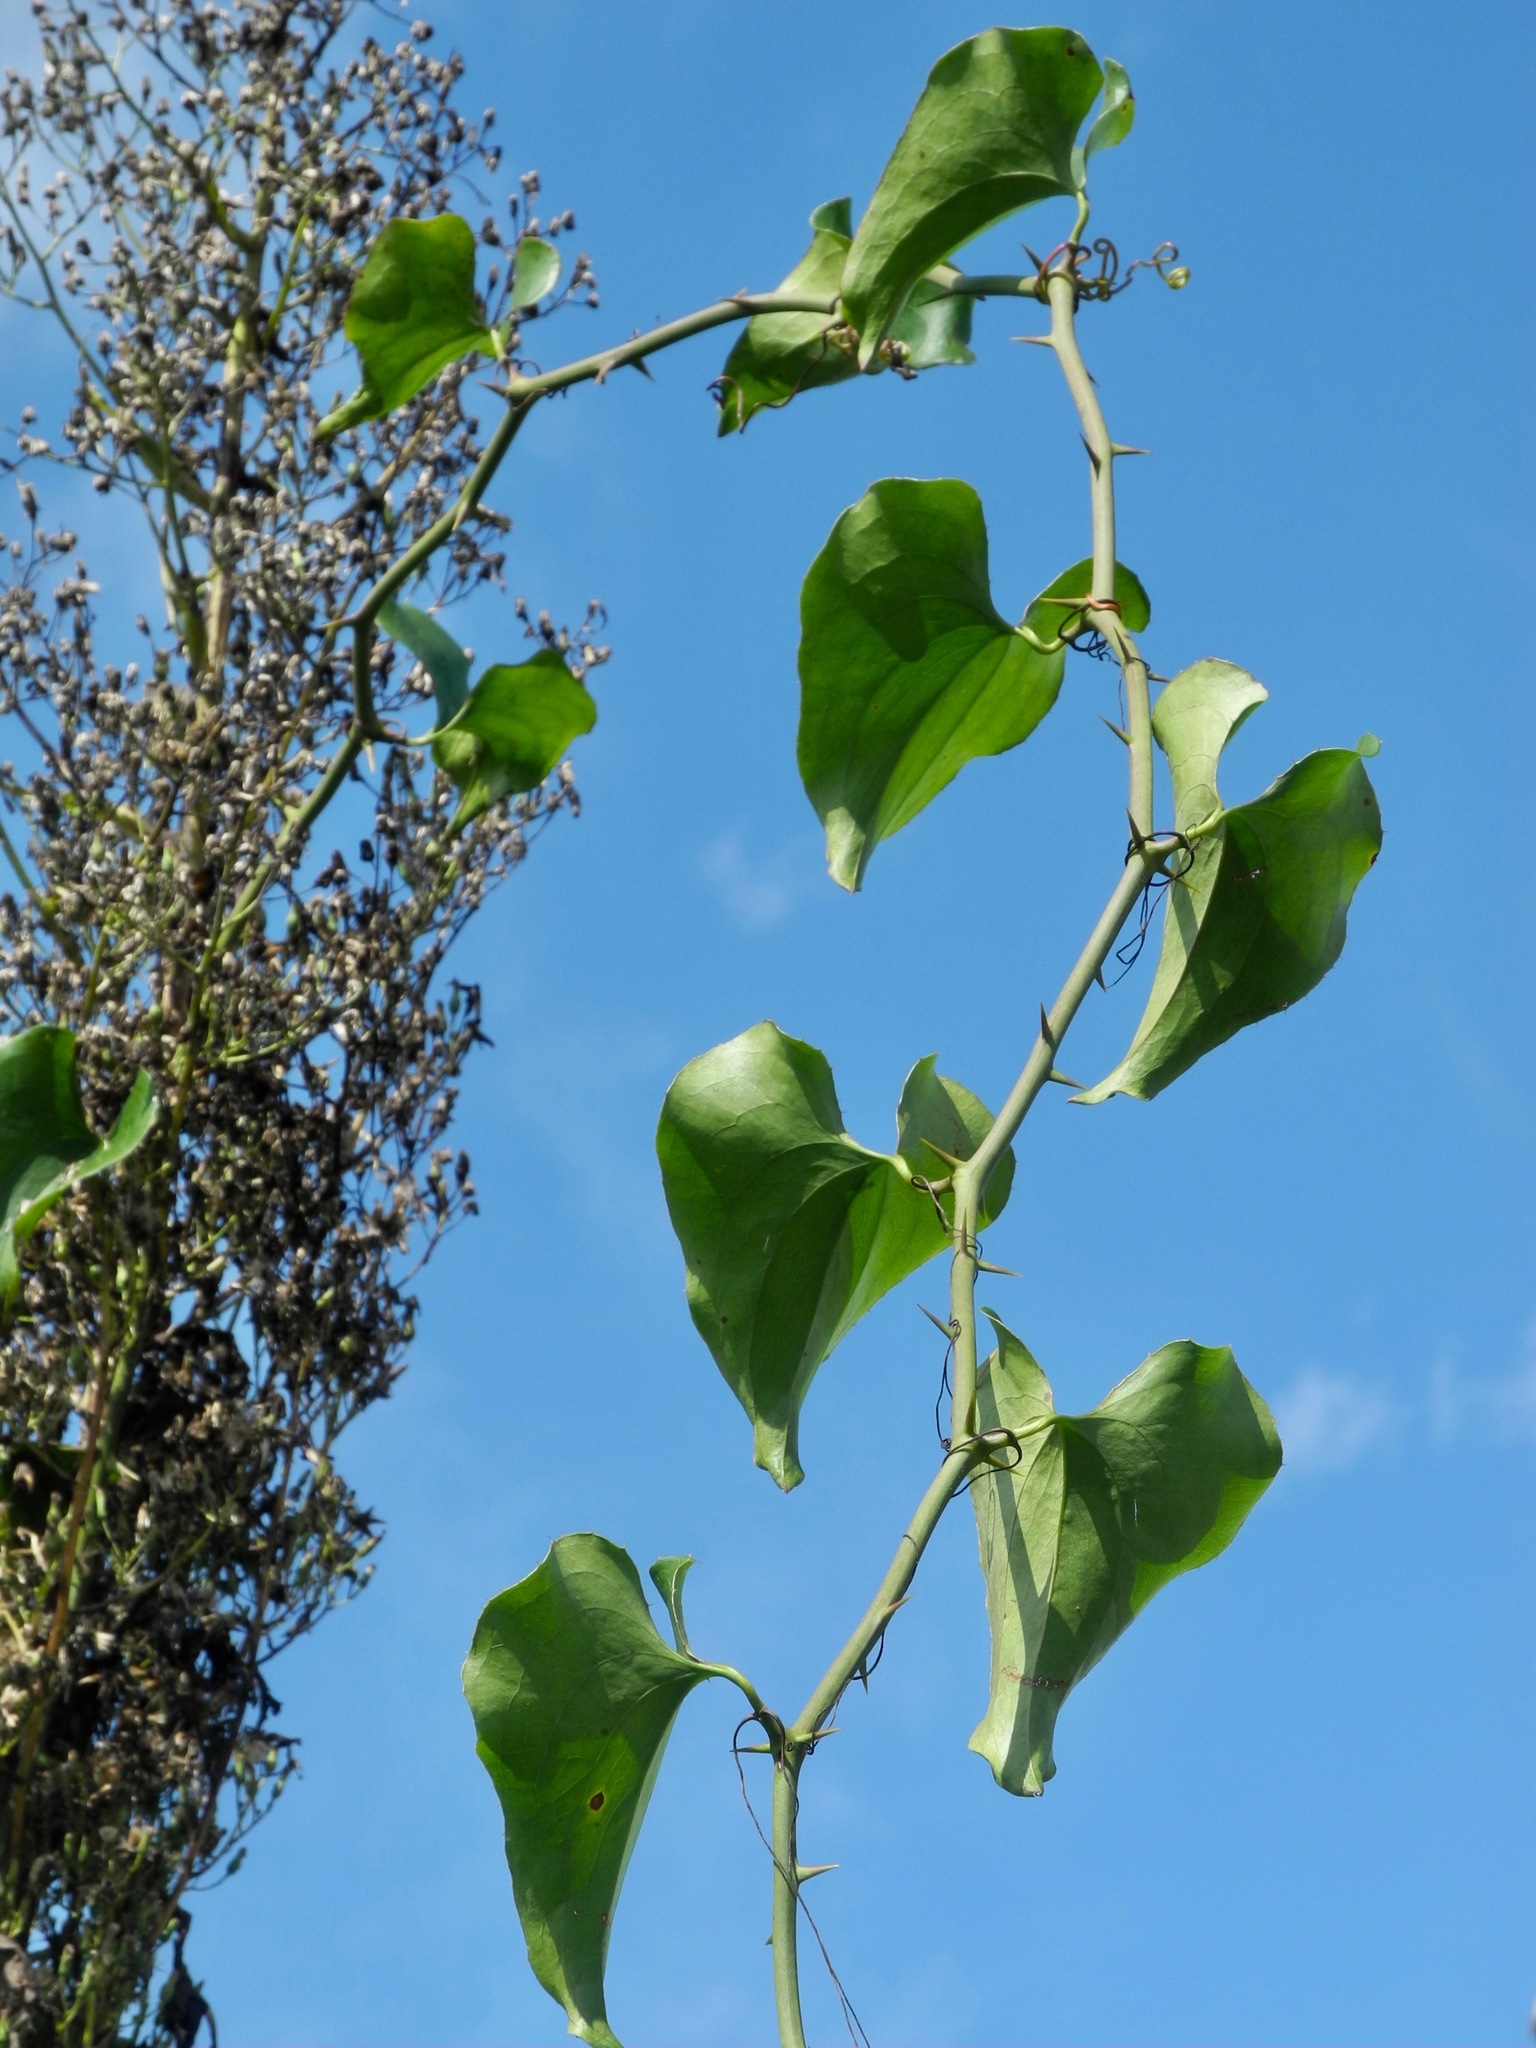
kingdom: Plantae
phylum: Tracheophyta
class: Liliopsida
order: Liliales
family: Smilacaceae
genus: Smilax
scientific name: Smilax bona-nox
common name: Catbrier
